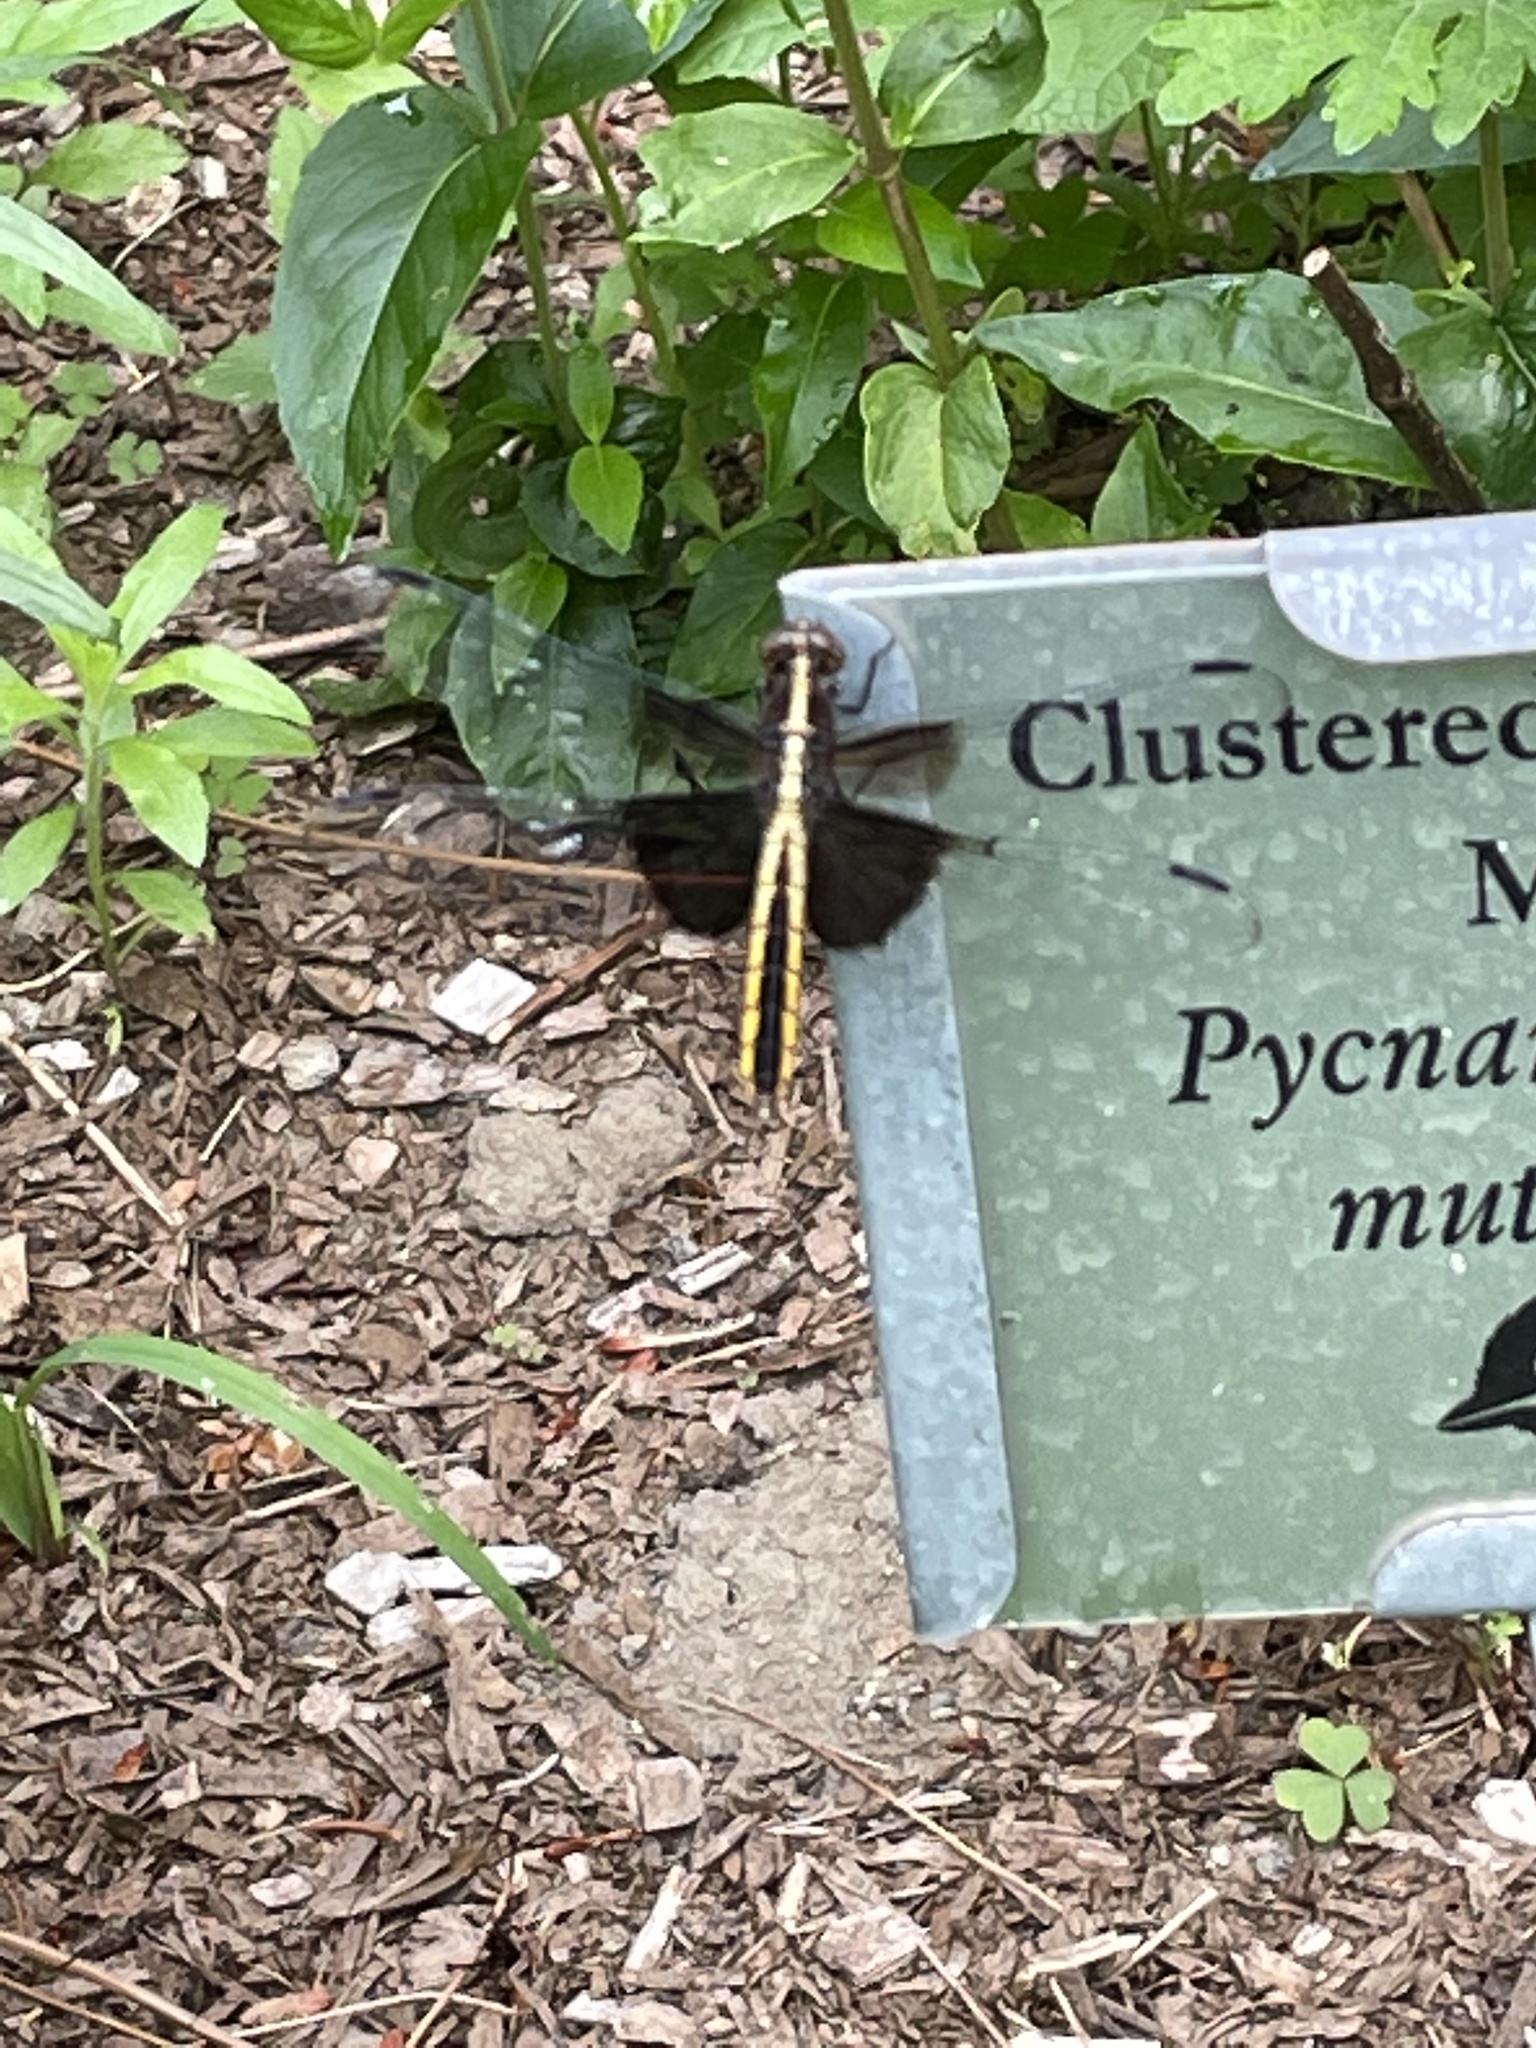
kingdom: Animalia
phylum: Arthropoda
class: Insecta
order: Odonata
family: Libellulidae
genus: Libellula
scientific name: Libellula luctuosa
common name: Widow skimmer
